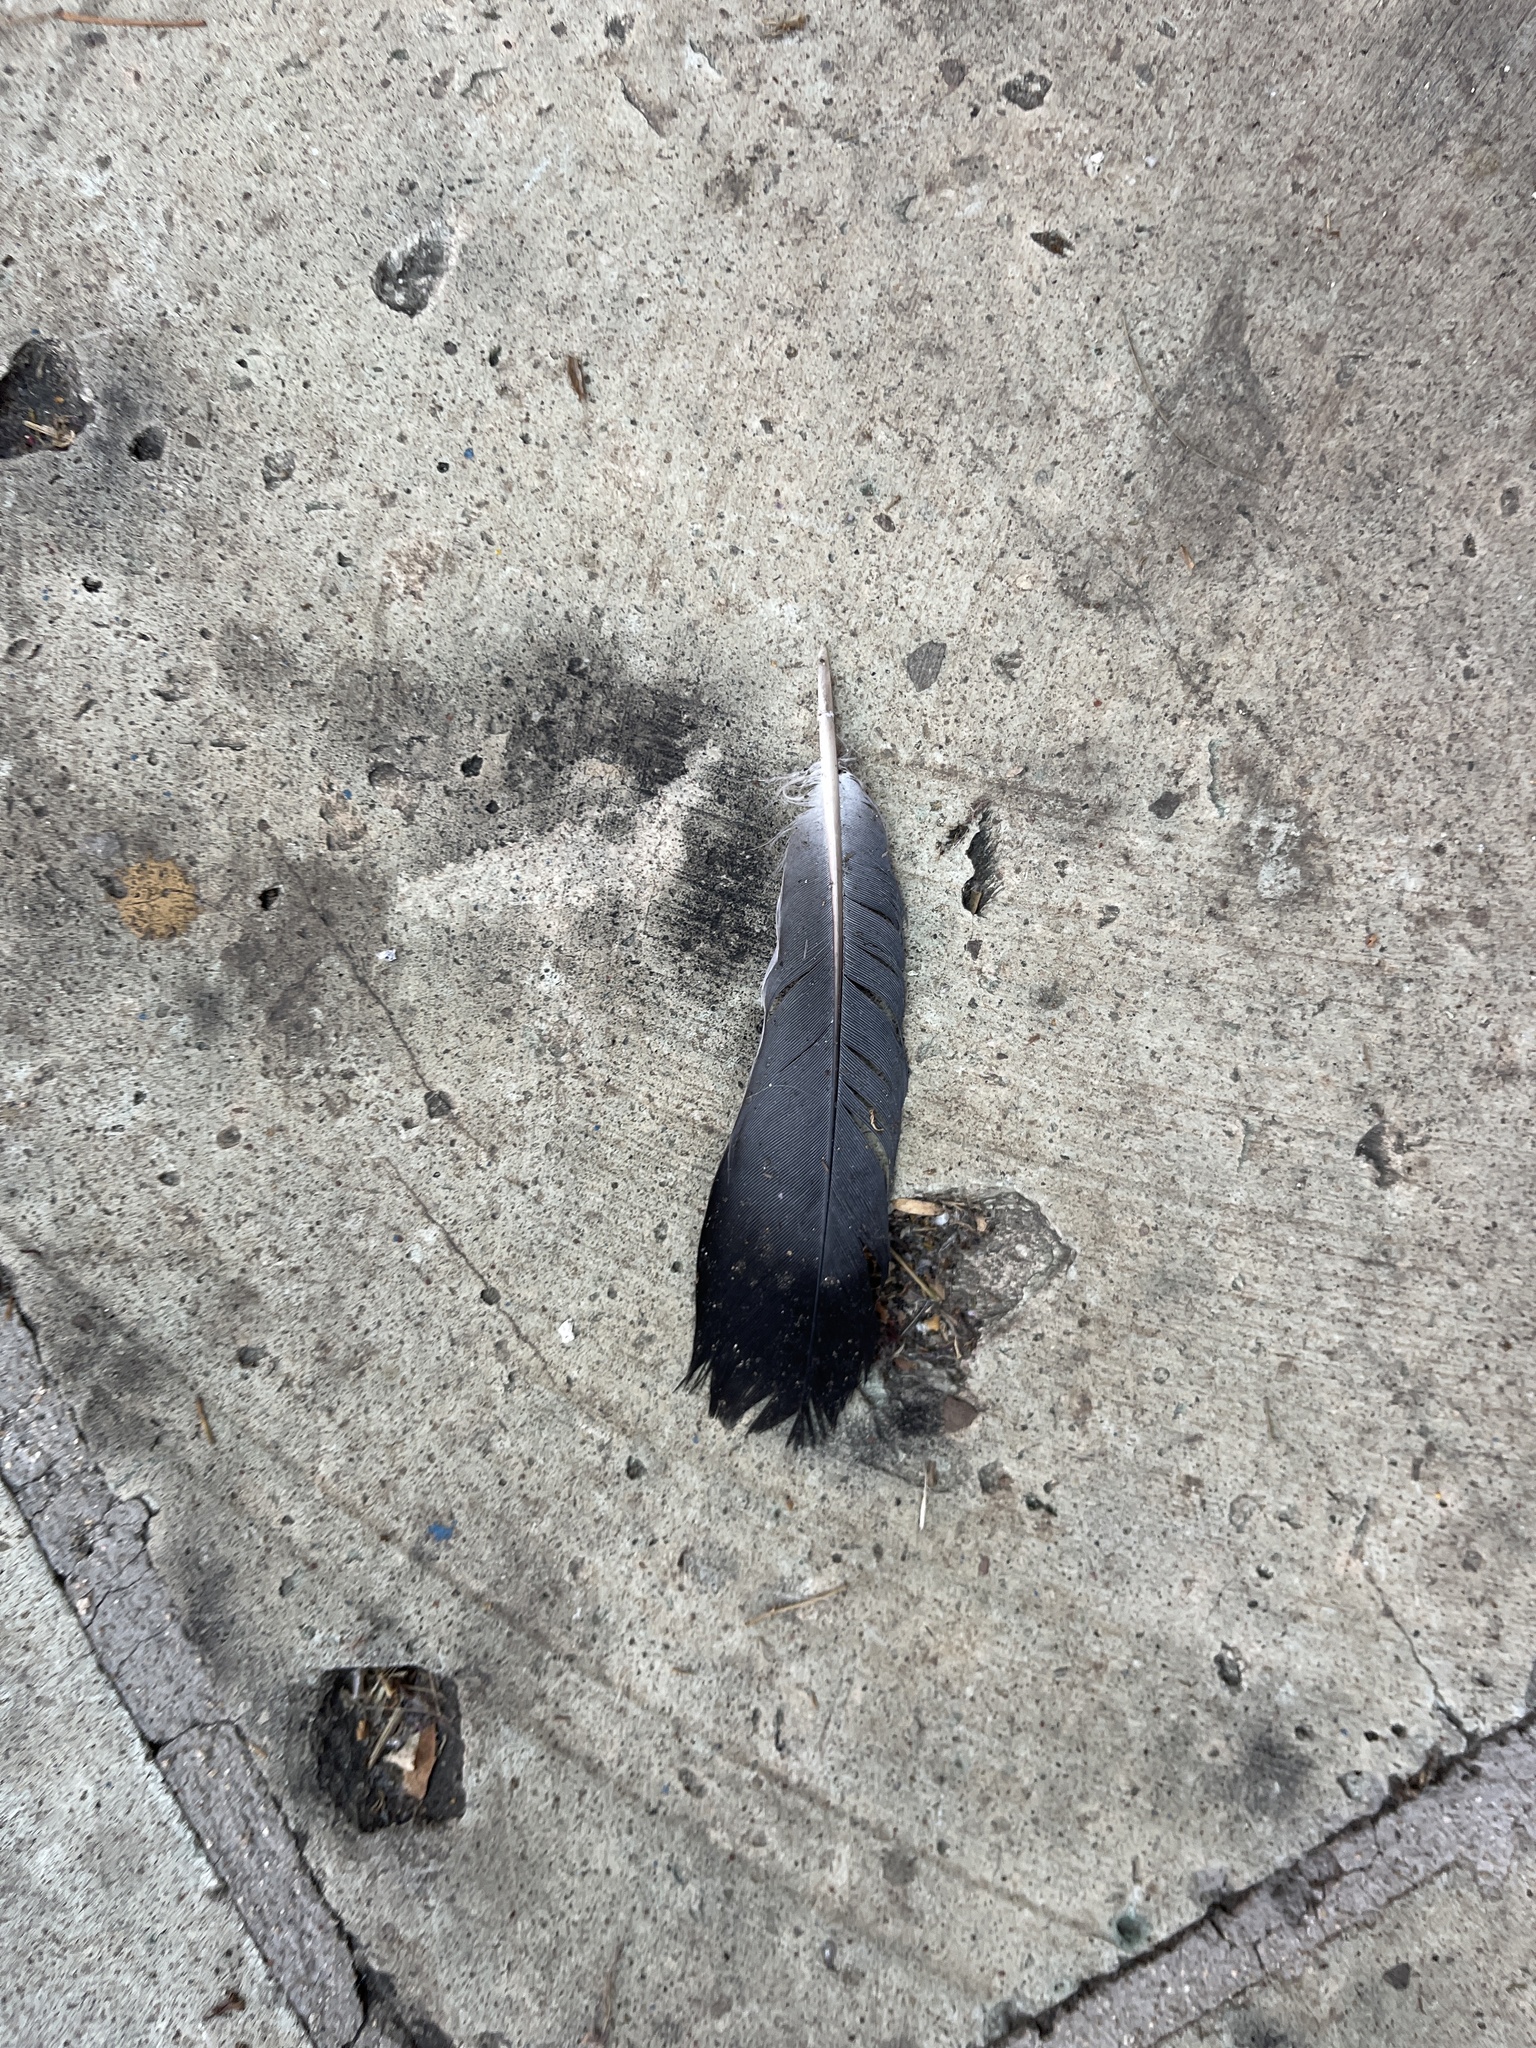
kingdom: Animalia
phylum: Chordata
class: Aves
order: Columbiformes
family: Columbidae
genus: Columba
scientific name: Columba livia
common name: Rock pigeon
